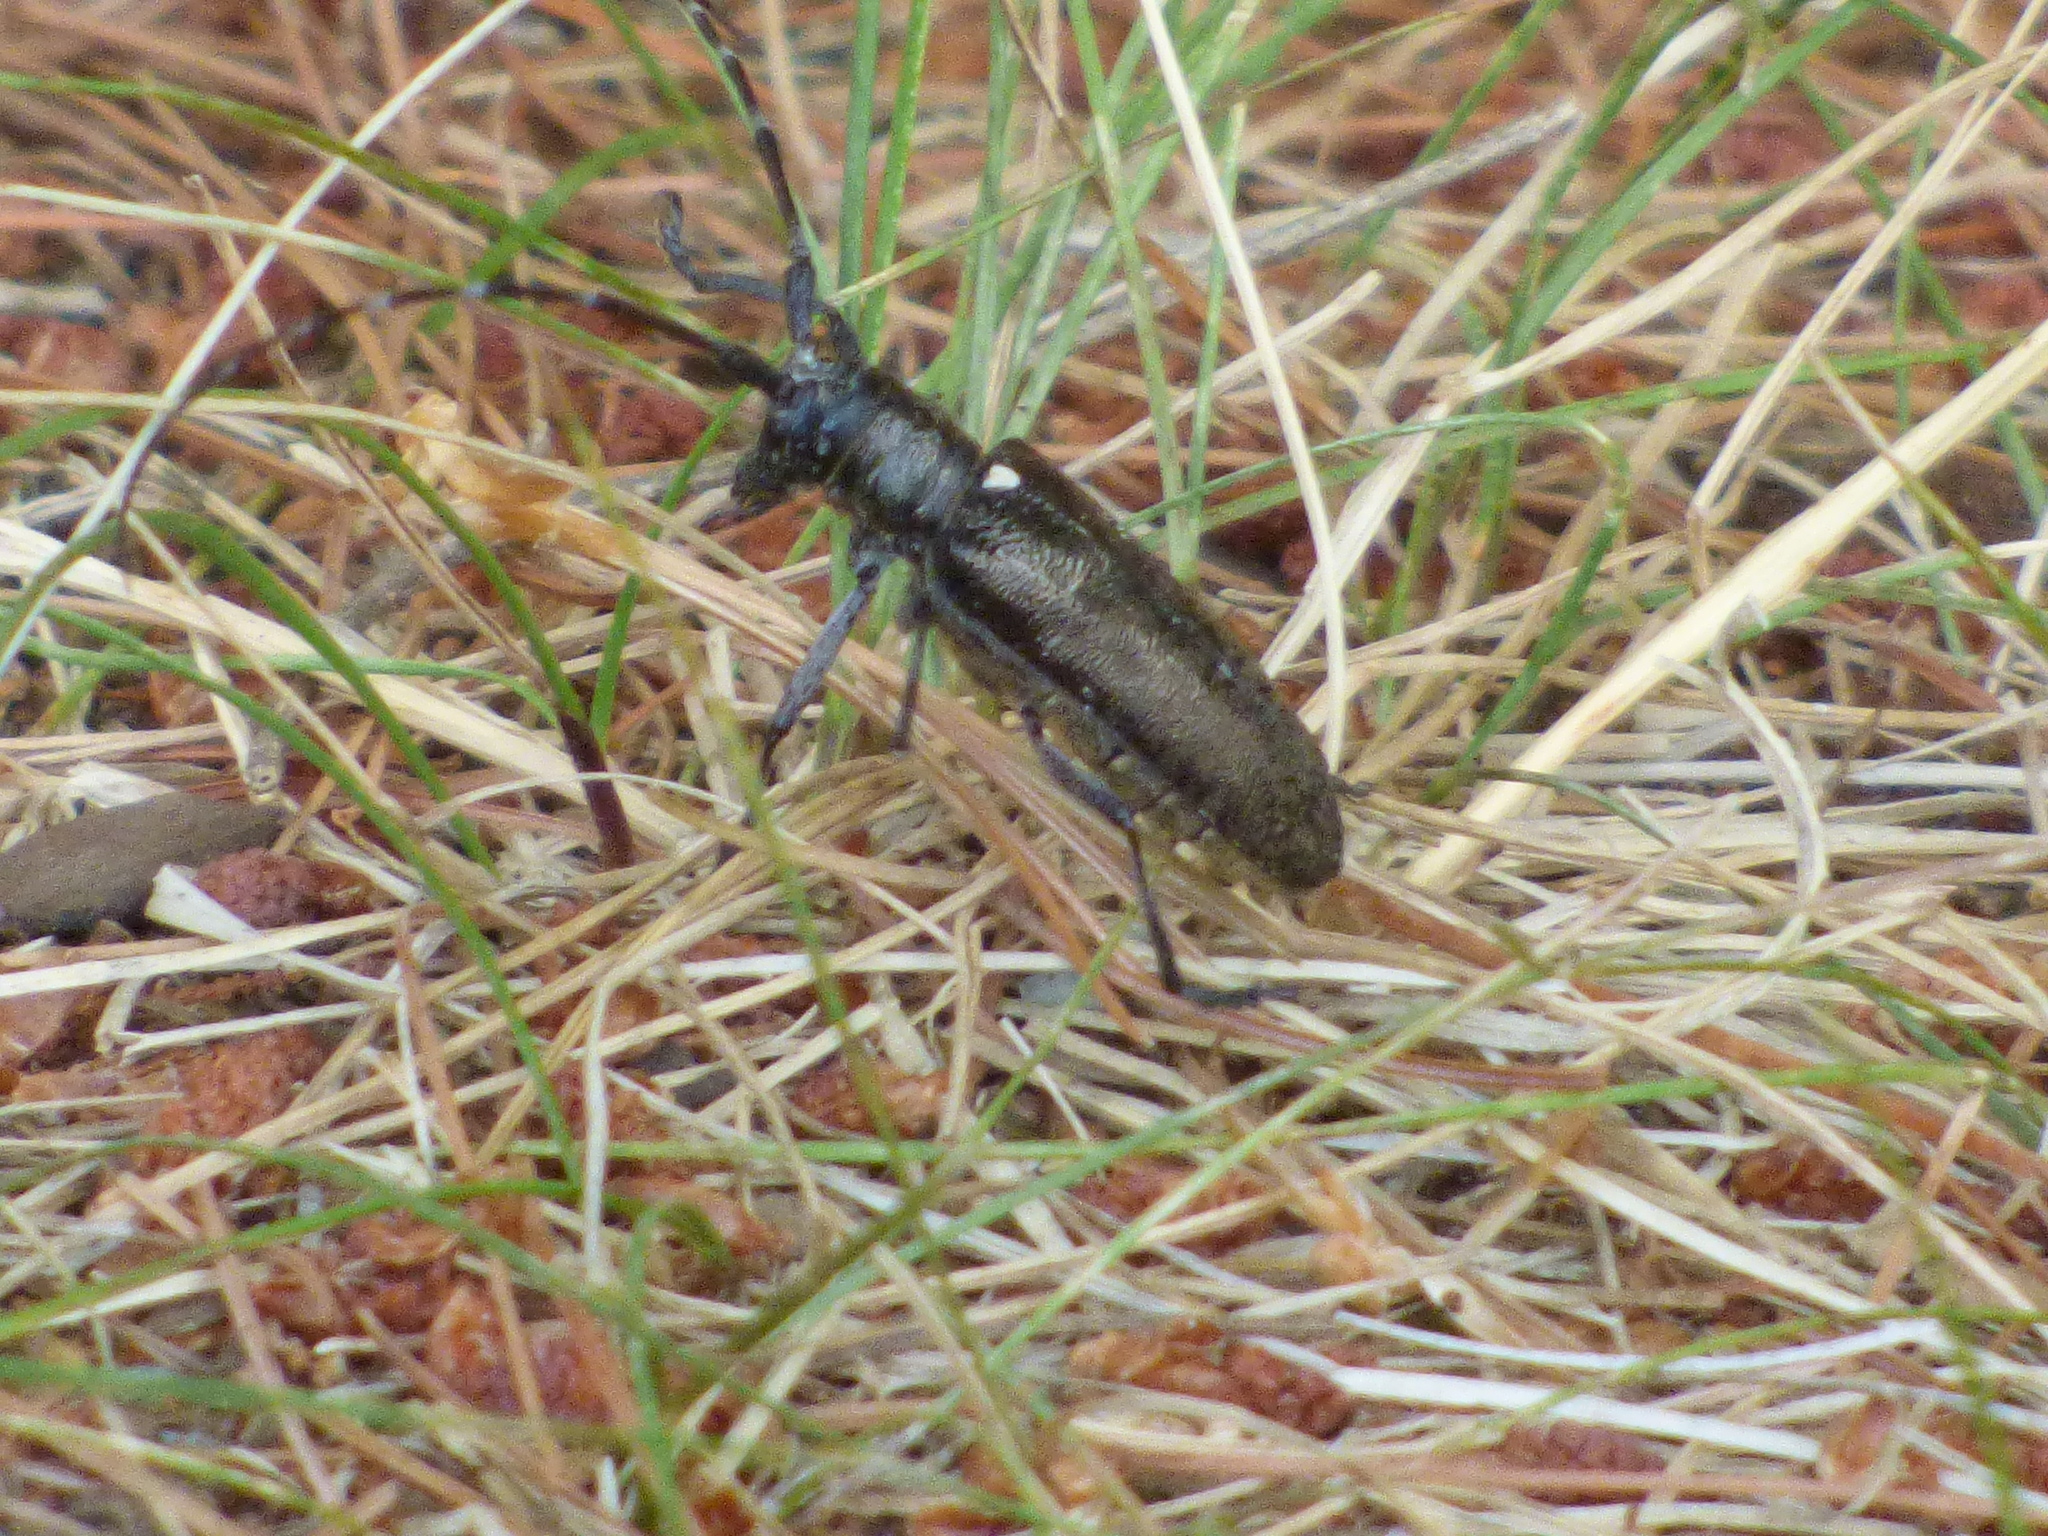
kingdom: Animalia
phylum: Arthropoda
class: Insecta
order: Coleoptera
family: Cerambycidae
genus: Monochamus
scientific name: Monochamus scutellatus
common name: White-spotted sawyer beetle
